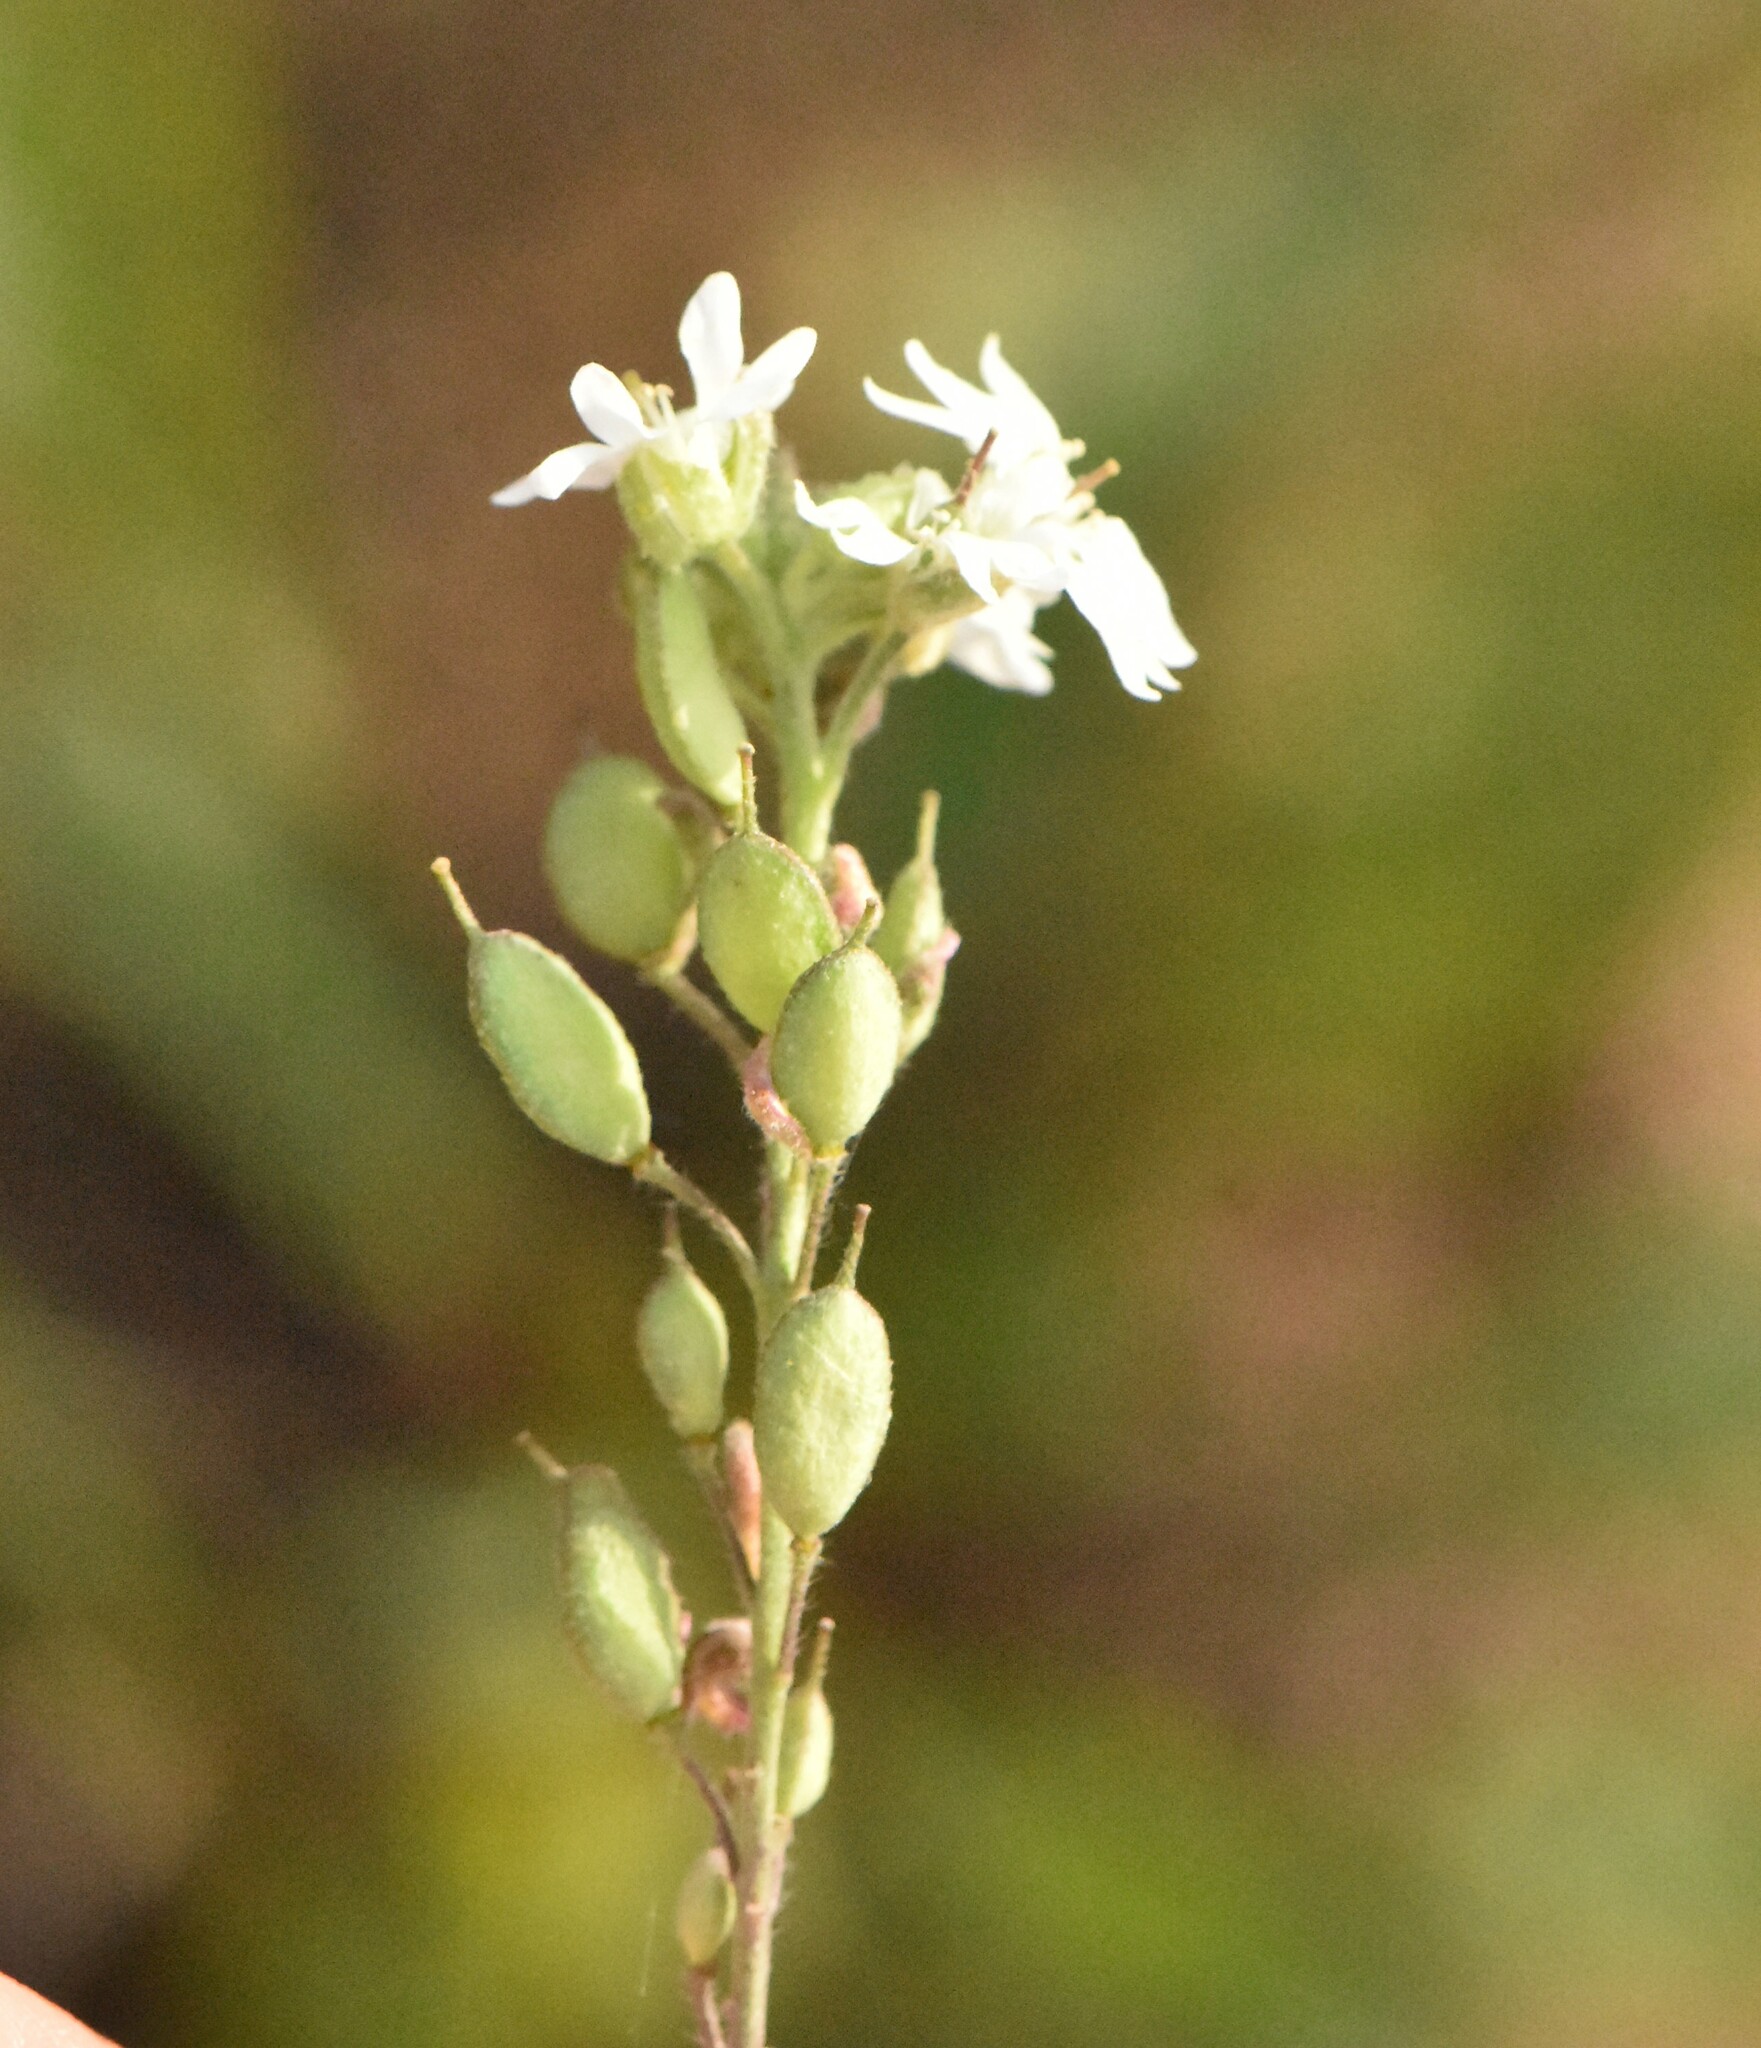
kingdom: Plantae
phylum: Tracheophyta
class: Magnoliopsida
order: Brassicales
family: Brassicaceae
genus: Berteroa
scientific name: Berteroa incana
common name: Hoary alison
